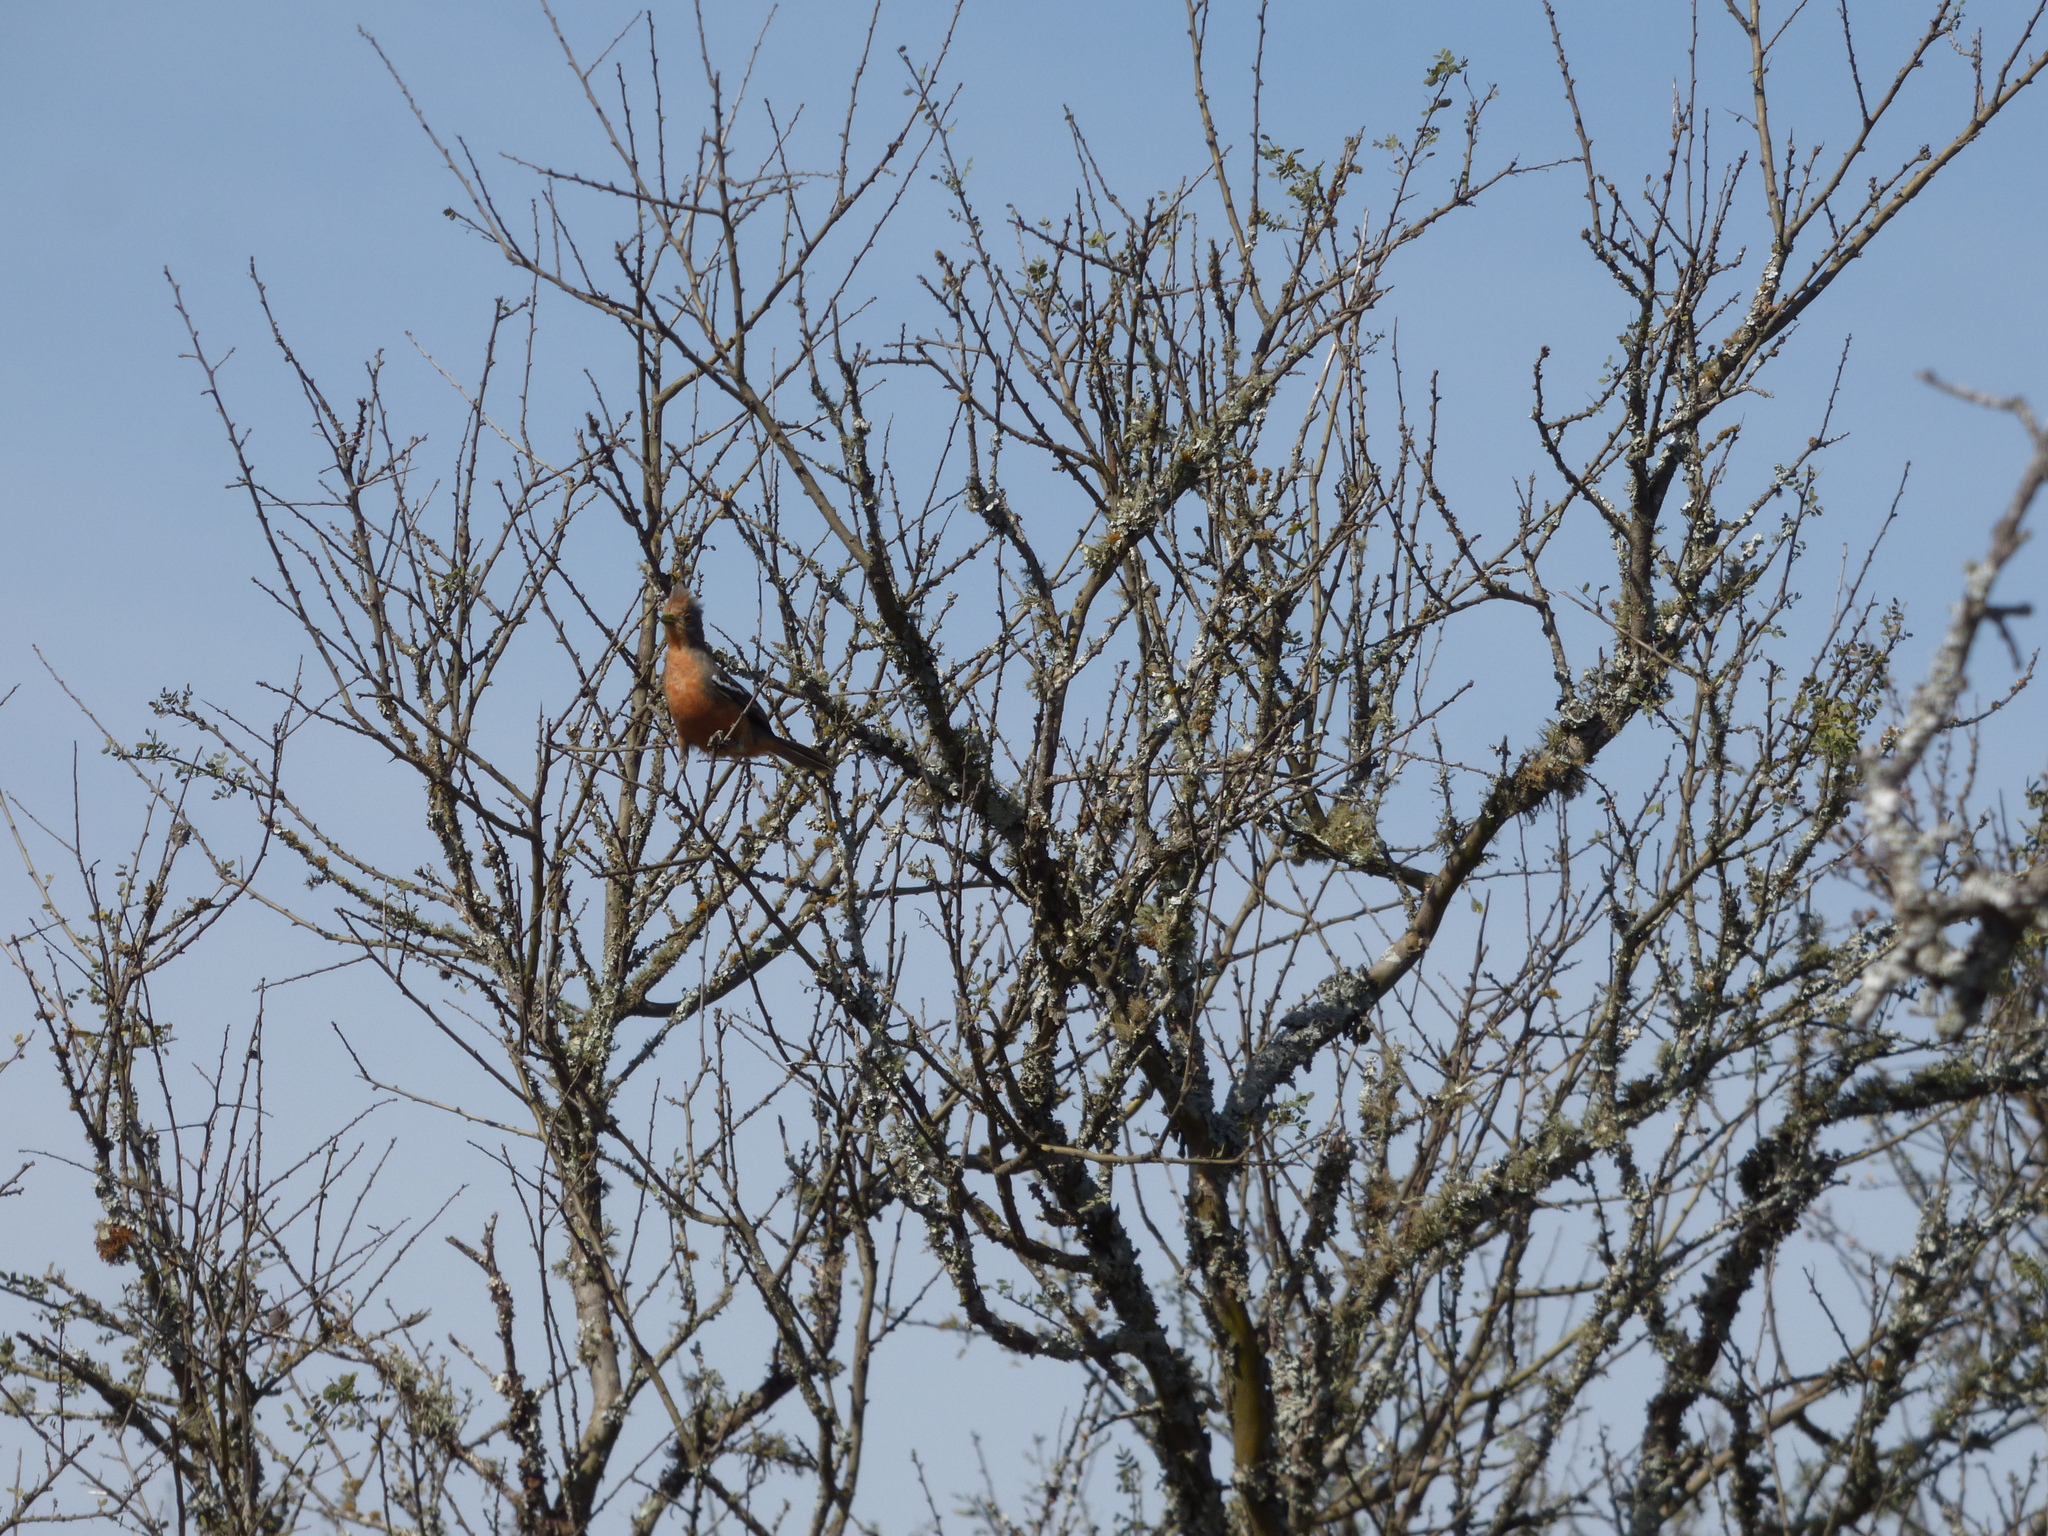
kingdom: Animalia
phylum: Chordata
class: Aves
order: Passeriformes
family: Cotingidae
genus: Phytotoma
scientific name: Phytotoma rutila
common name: White-tipped plantcutter
